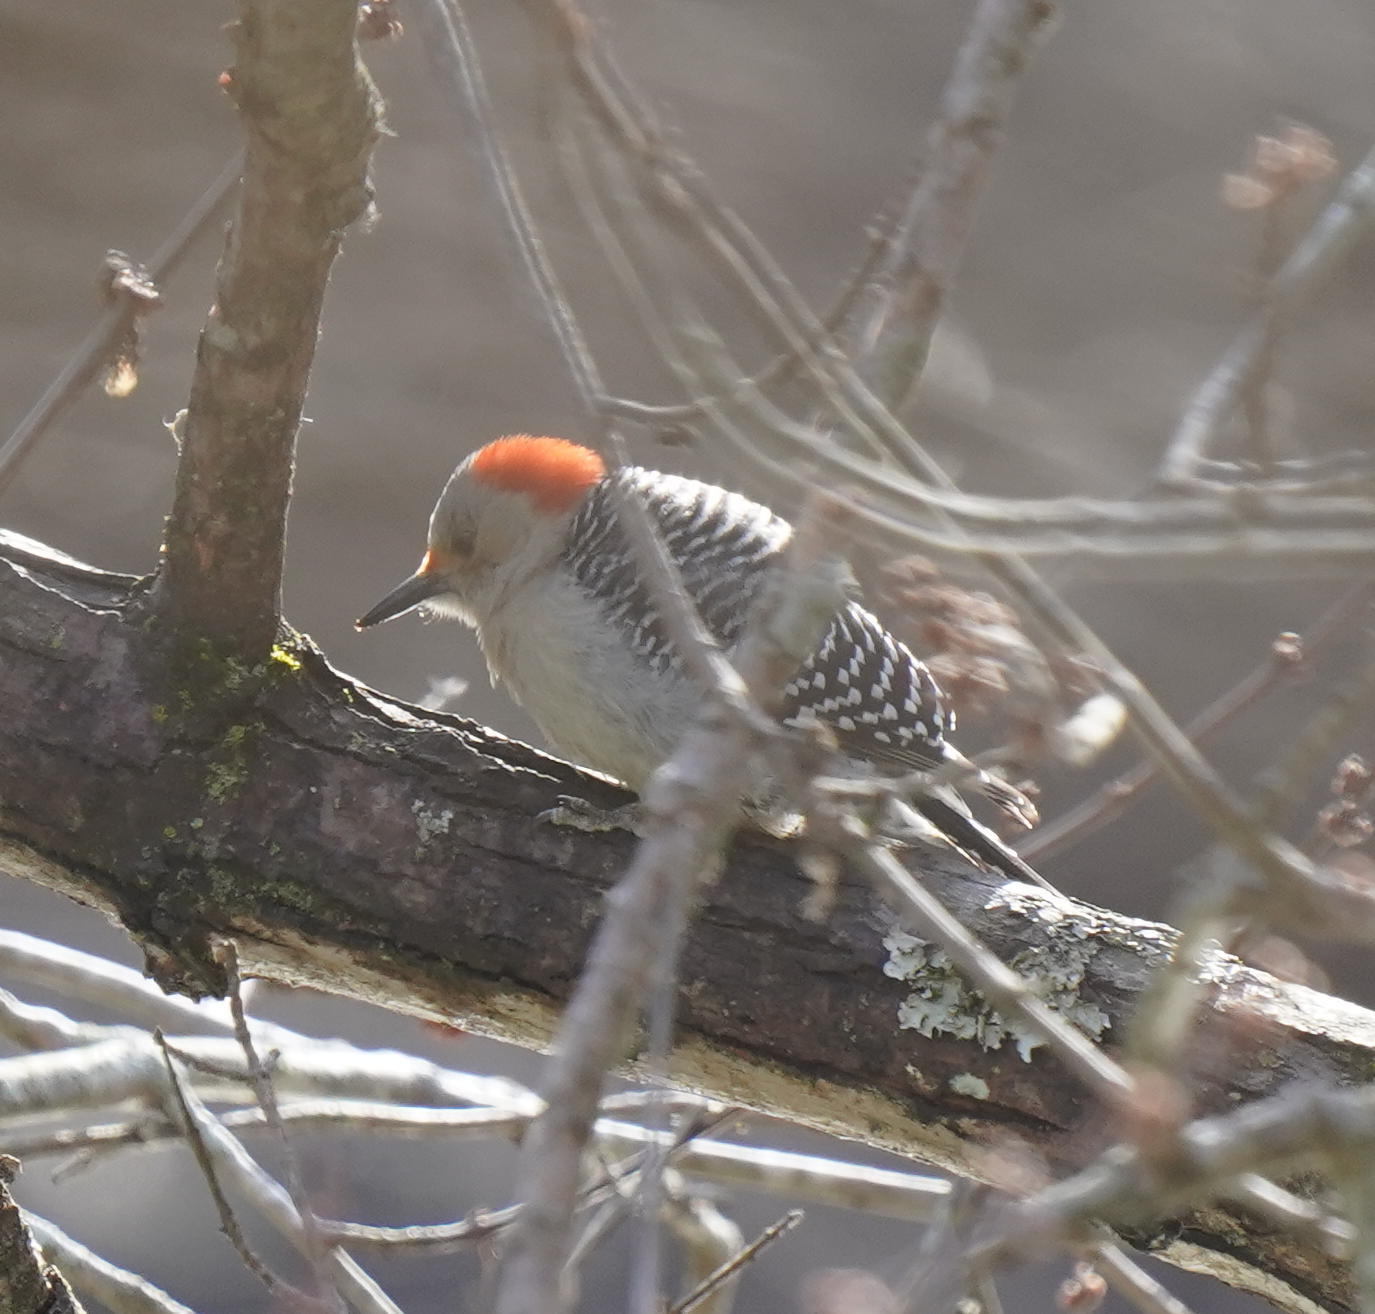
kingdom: Animalia
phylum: Chordata
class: Aves
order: Piciformes
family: Picidae
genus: Melanerpes
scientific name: Melanerpes carolinus
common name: Red-bellied woodpecker
